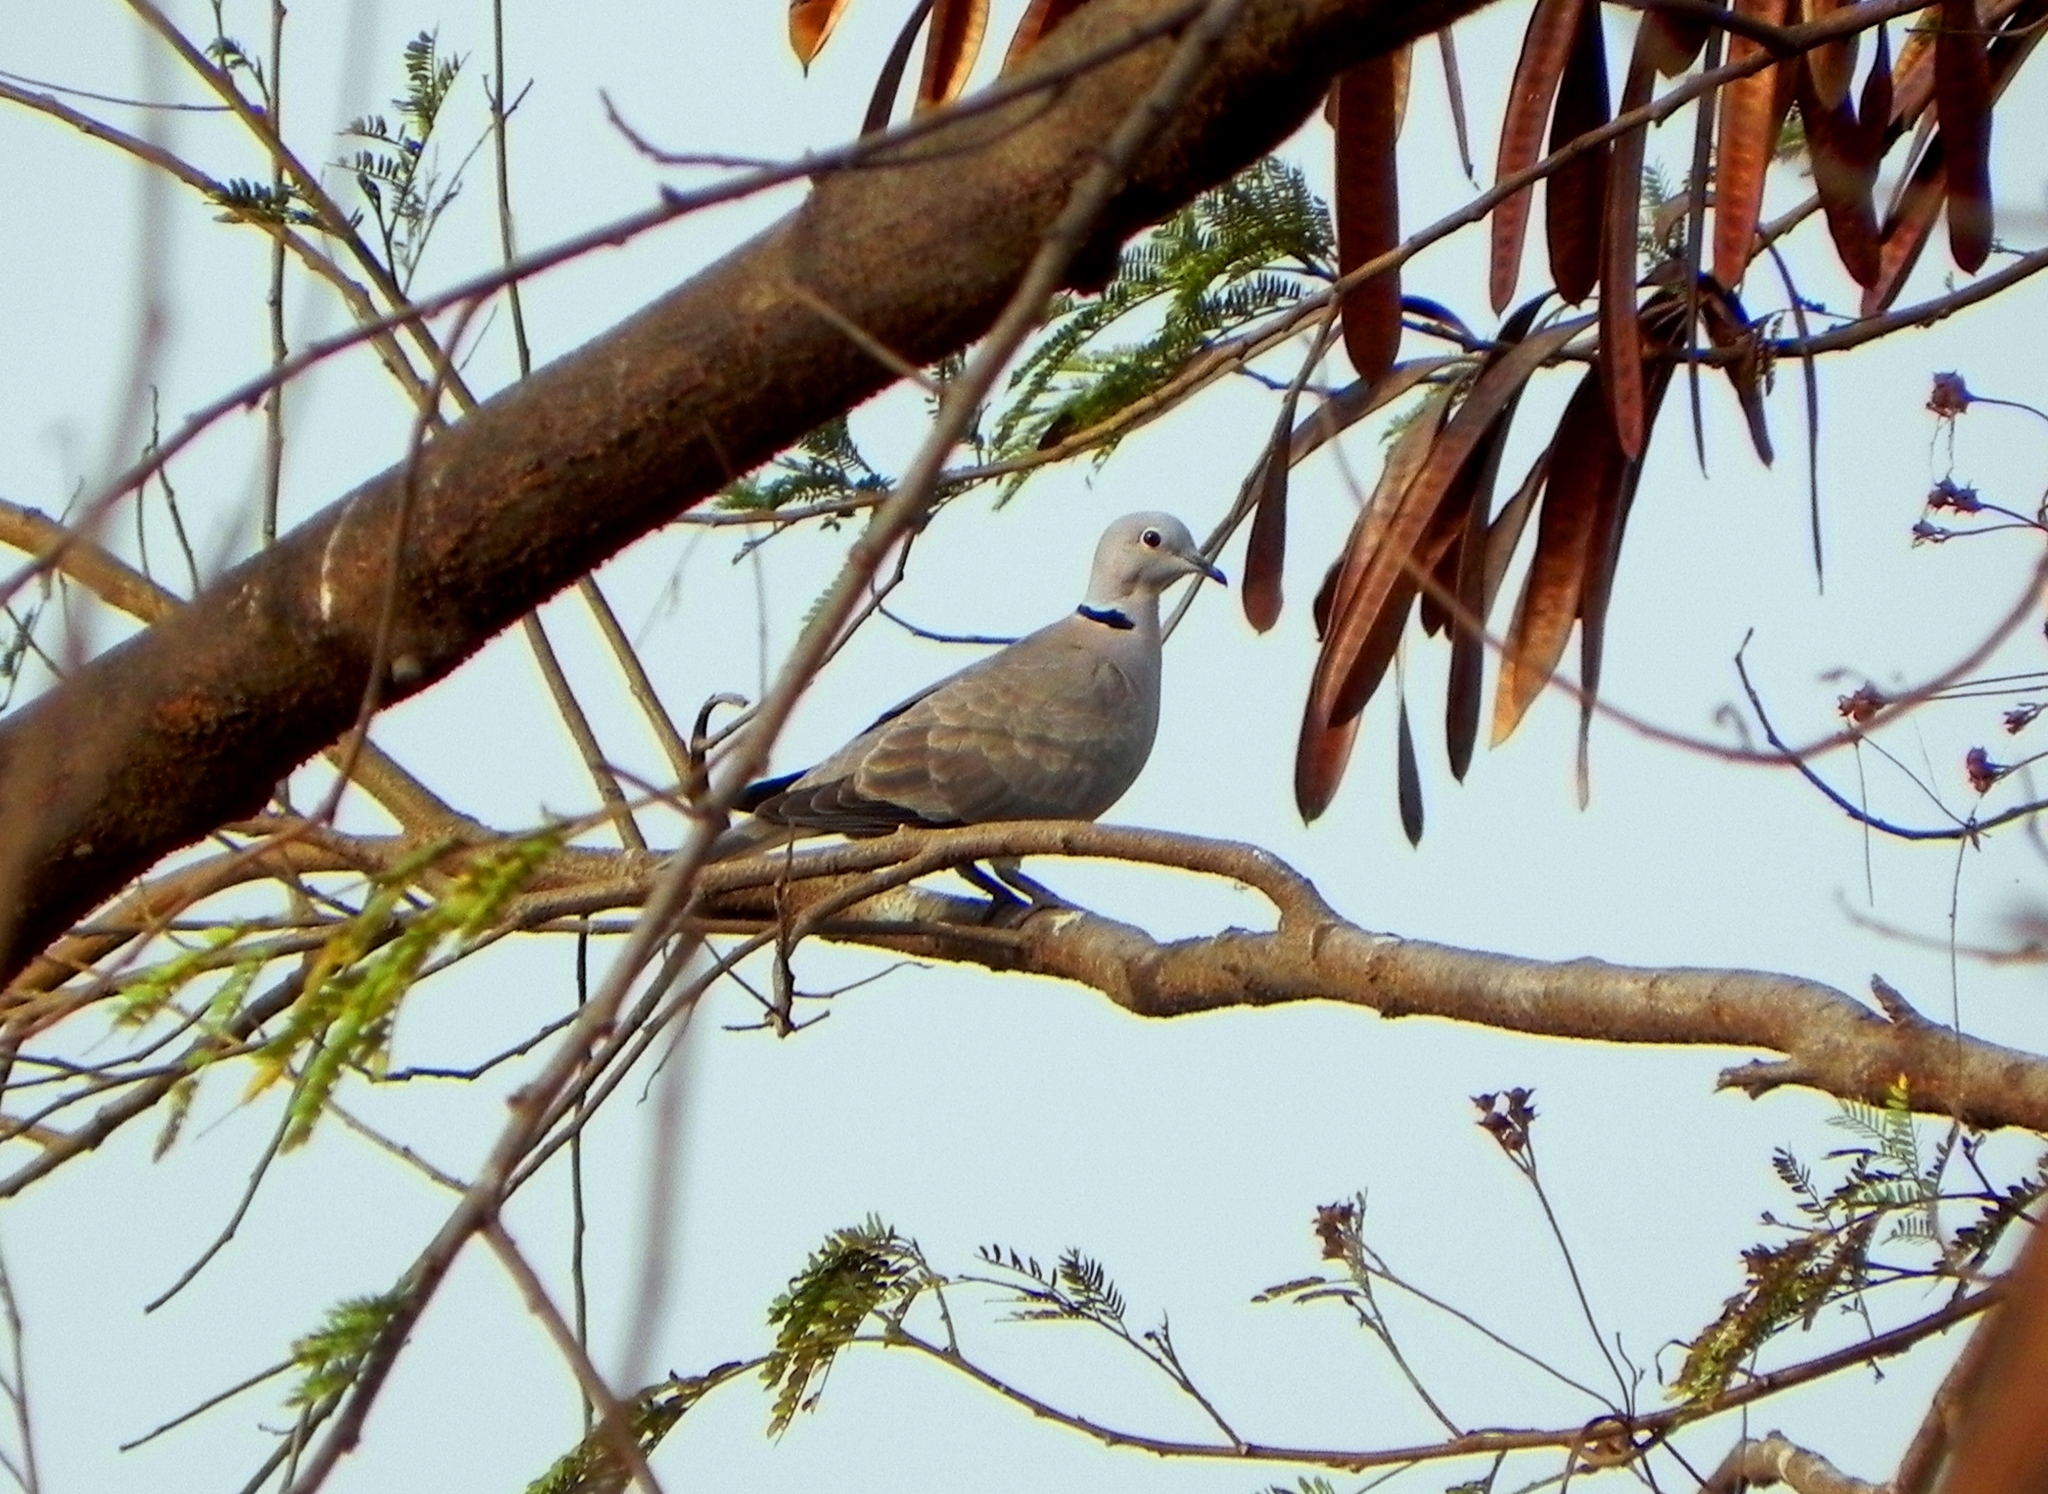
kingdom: Animalia
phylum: Chordata
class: Aves
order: Columbiformes
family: Columbidae
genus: Streptopelia
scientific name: Streptopelia decaocto
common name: Eurasian collared dove
